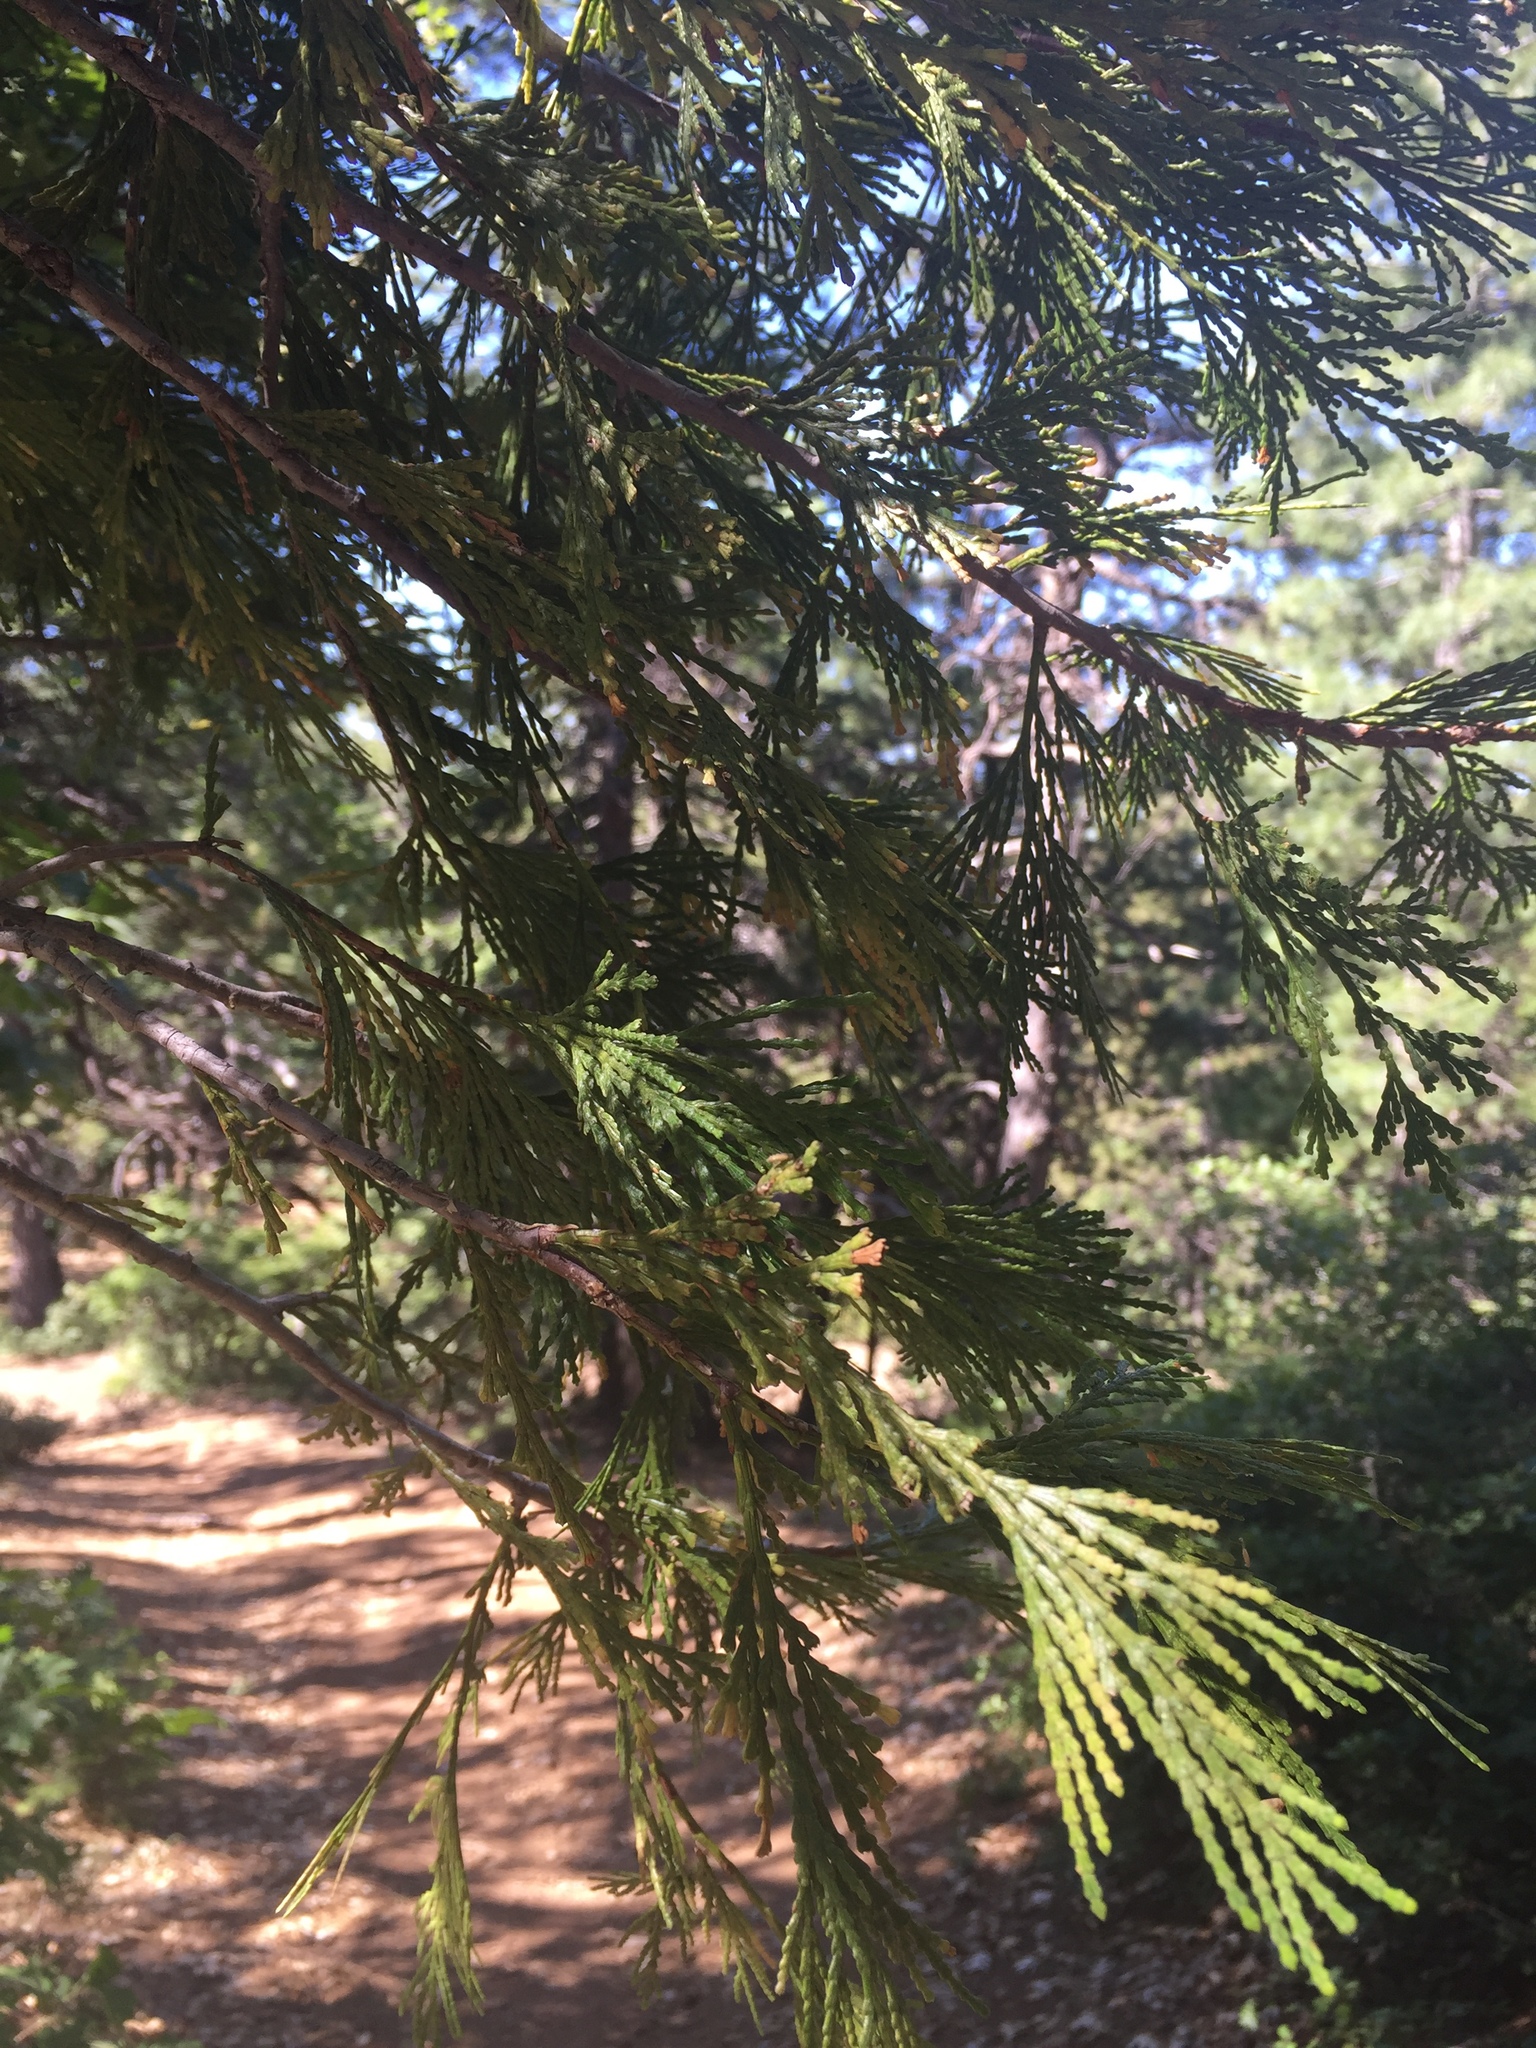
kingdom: Plantae
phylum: Tracheophyta
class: Pinopsida
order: Pinales
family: Cupressaceae
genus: Calocedrus
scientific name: Calocedrus decurrens
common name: Californian incense-cedar
